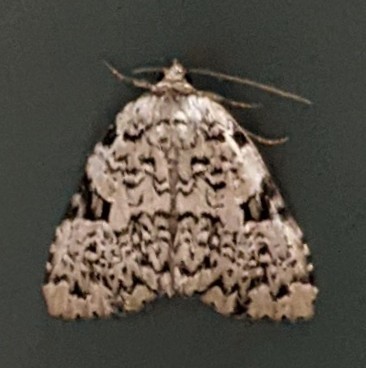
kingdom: Animalia
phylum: Arthropoda
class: Insecta
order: Lepidoptera
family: Noctuidae
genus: Leuconycta
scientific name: Leuconycta diphteroides
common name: Green leuconycta moth
